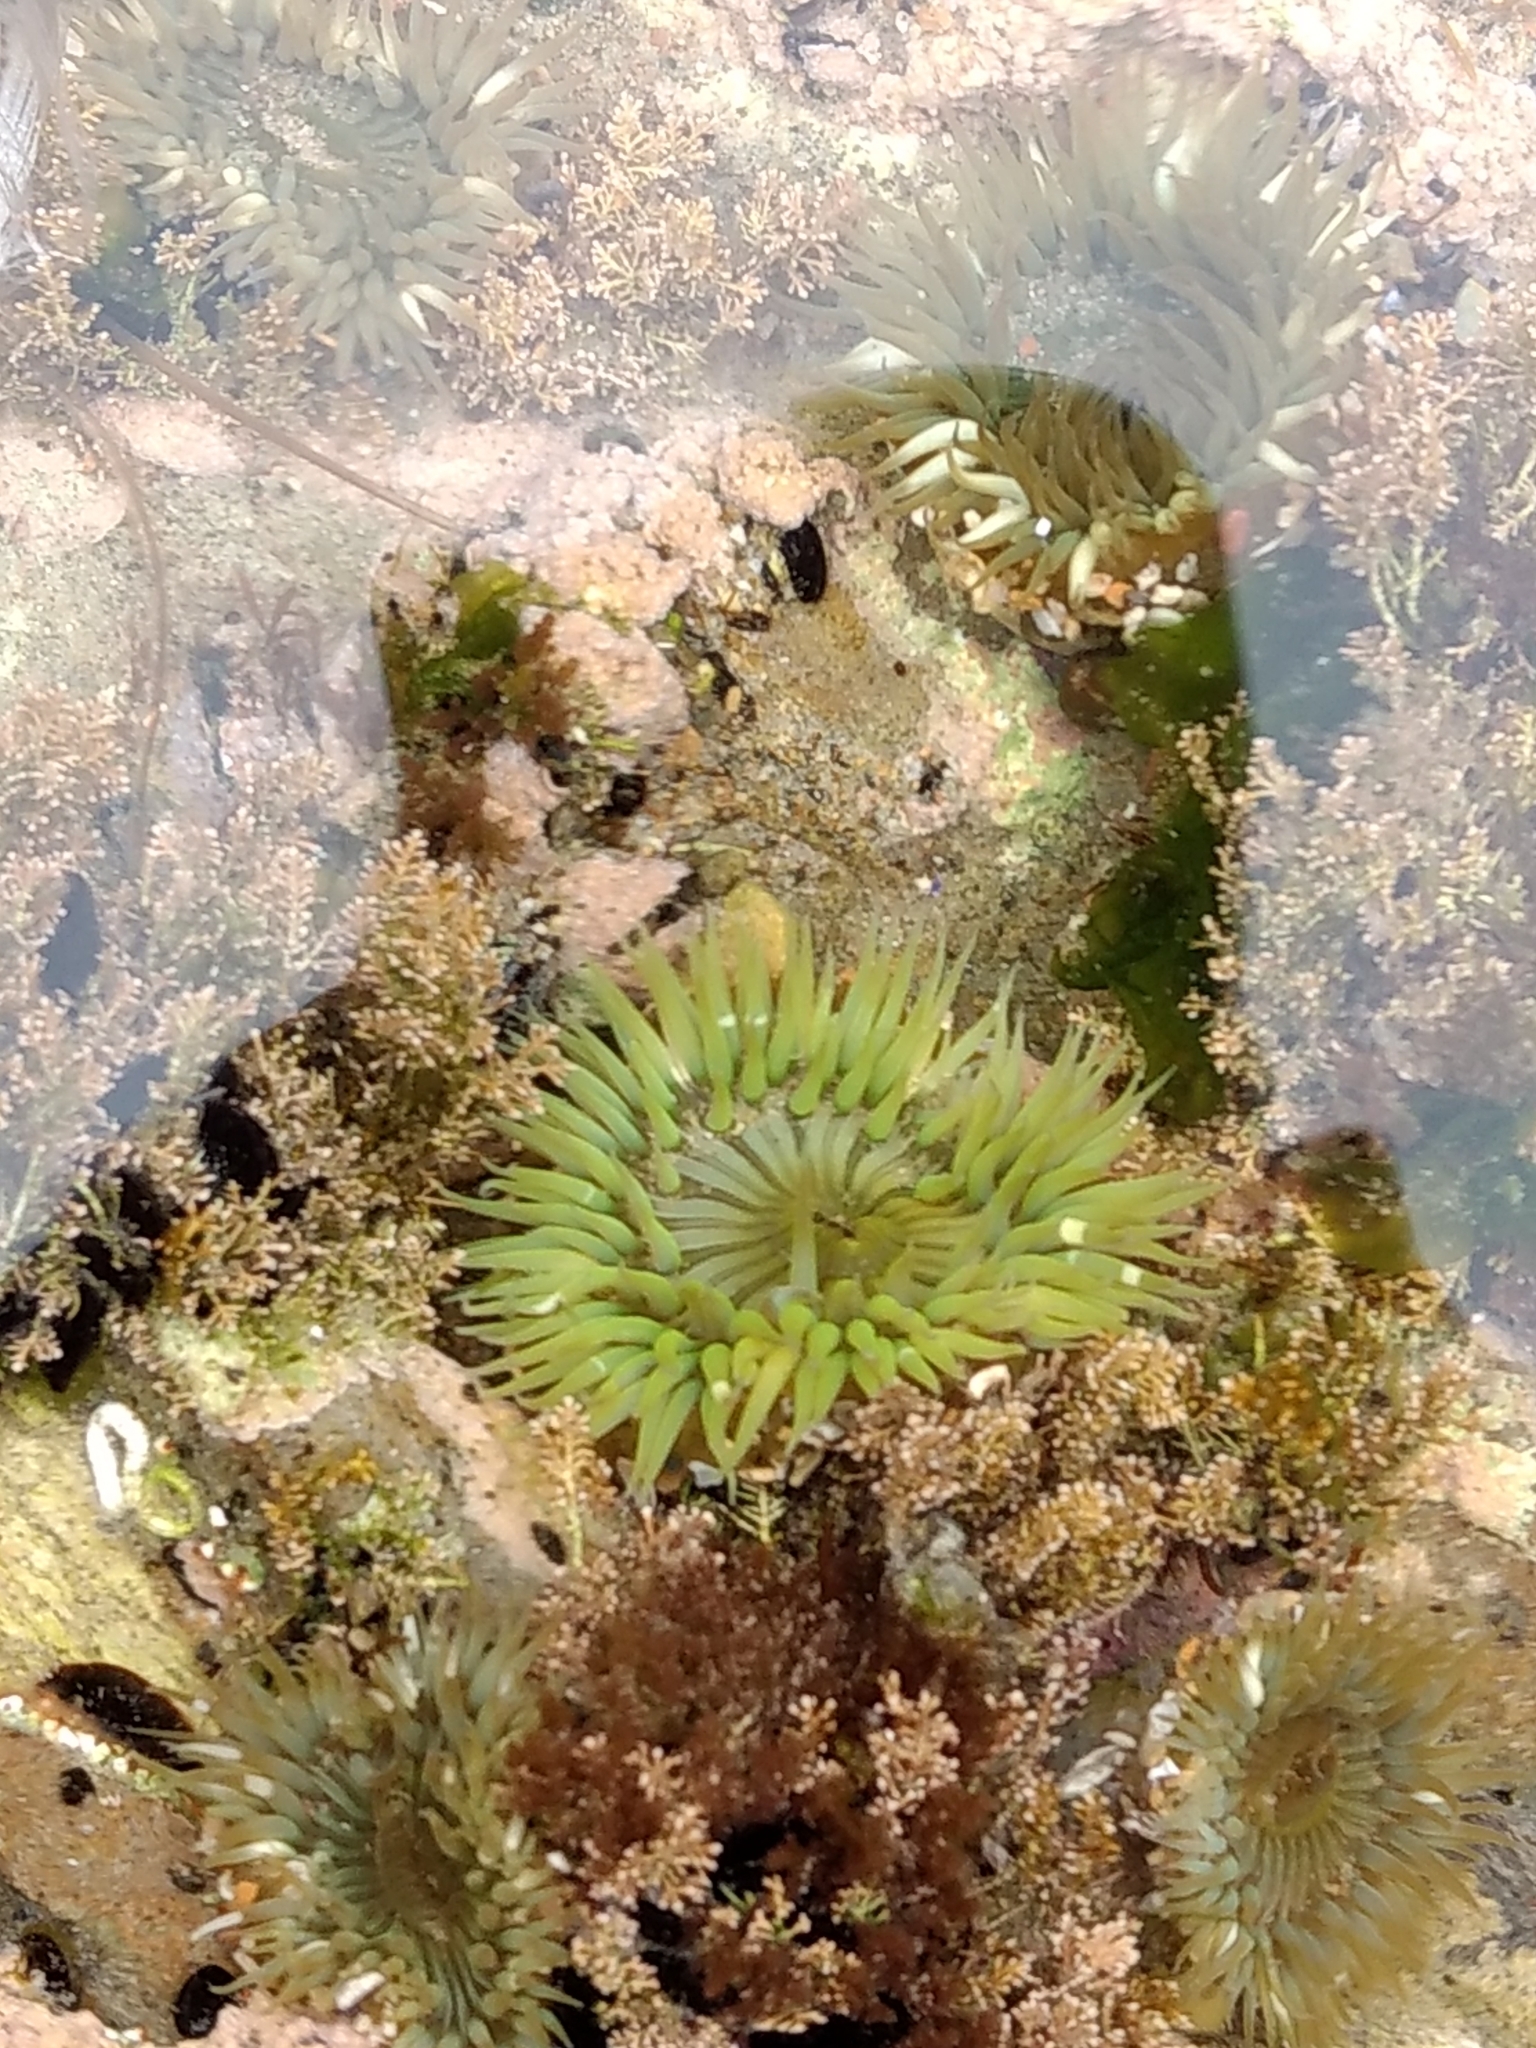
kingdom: Animalia
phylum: Cnidaria
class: Anthozoa
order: Actiniaria
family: Actiniidae
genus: Anthopleura
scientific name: Anthopleura sola
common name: Sun anemone
